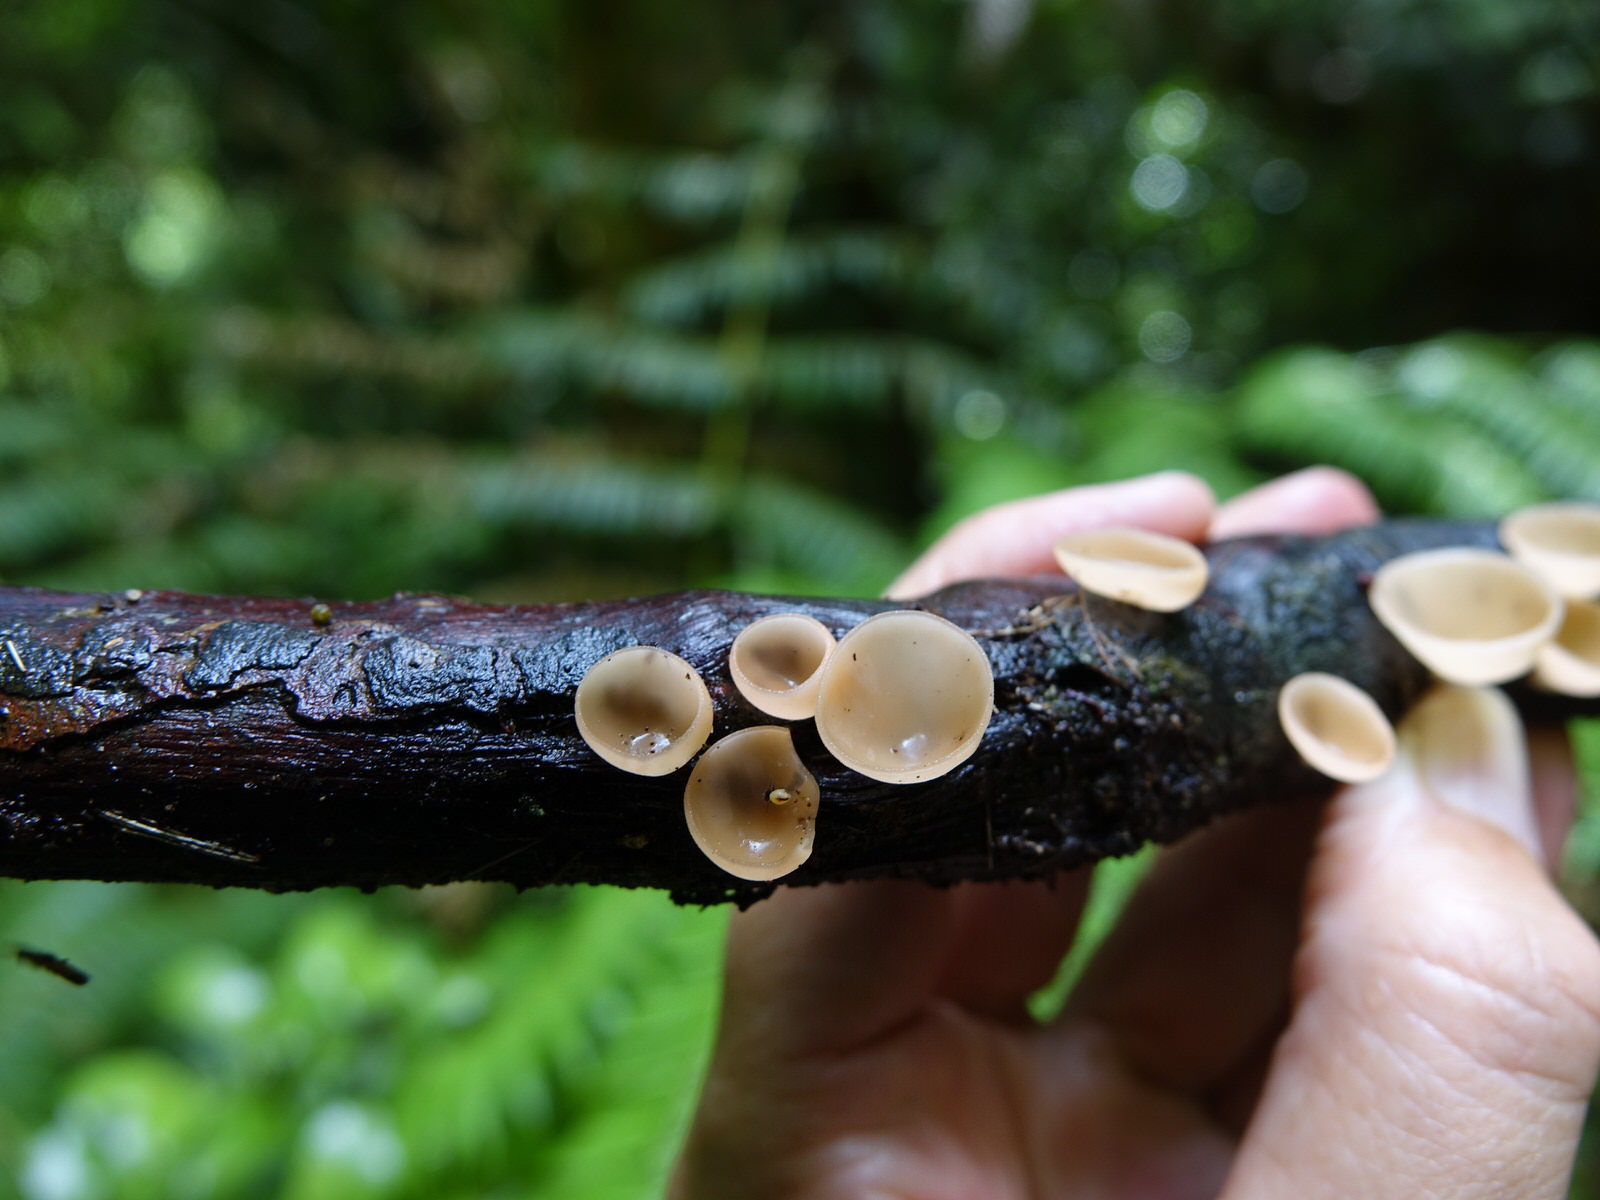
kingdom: Fungi
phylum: Ascomycota
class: Pezizomycetes
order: Pezizales
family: Sarcoscyphaceae
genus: Cookeina
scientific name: Cookeina colensoi
